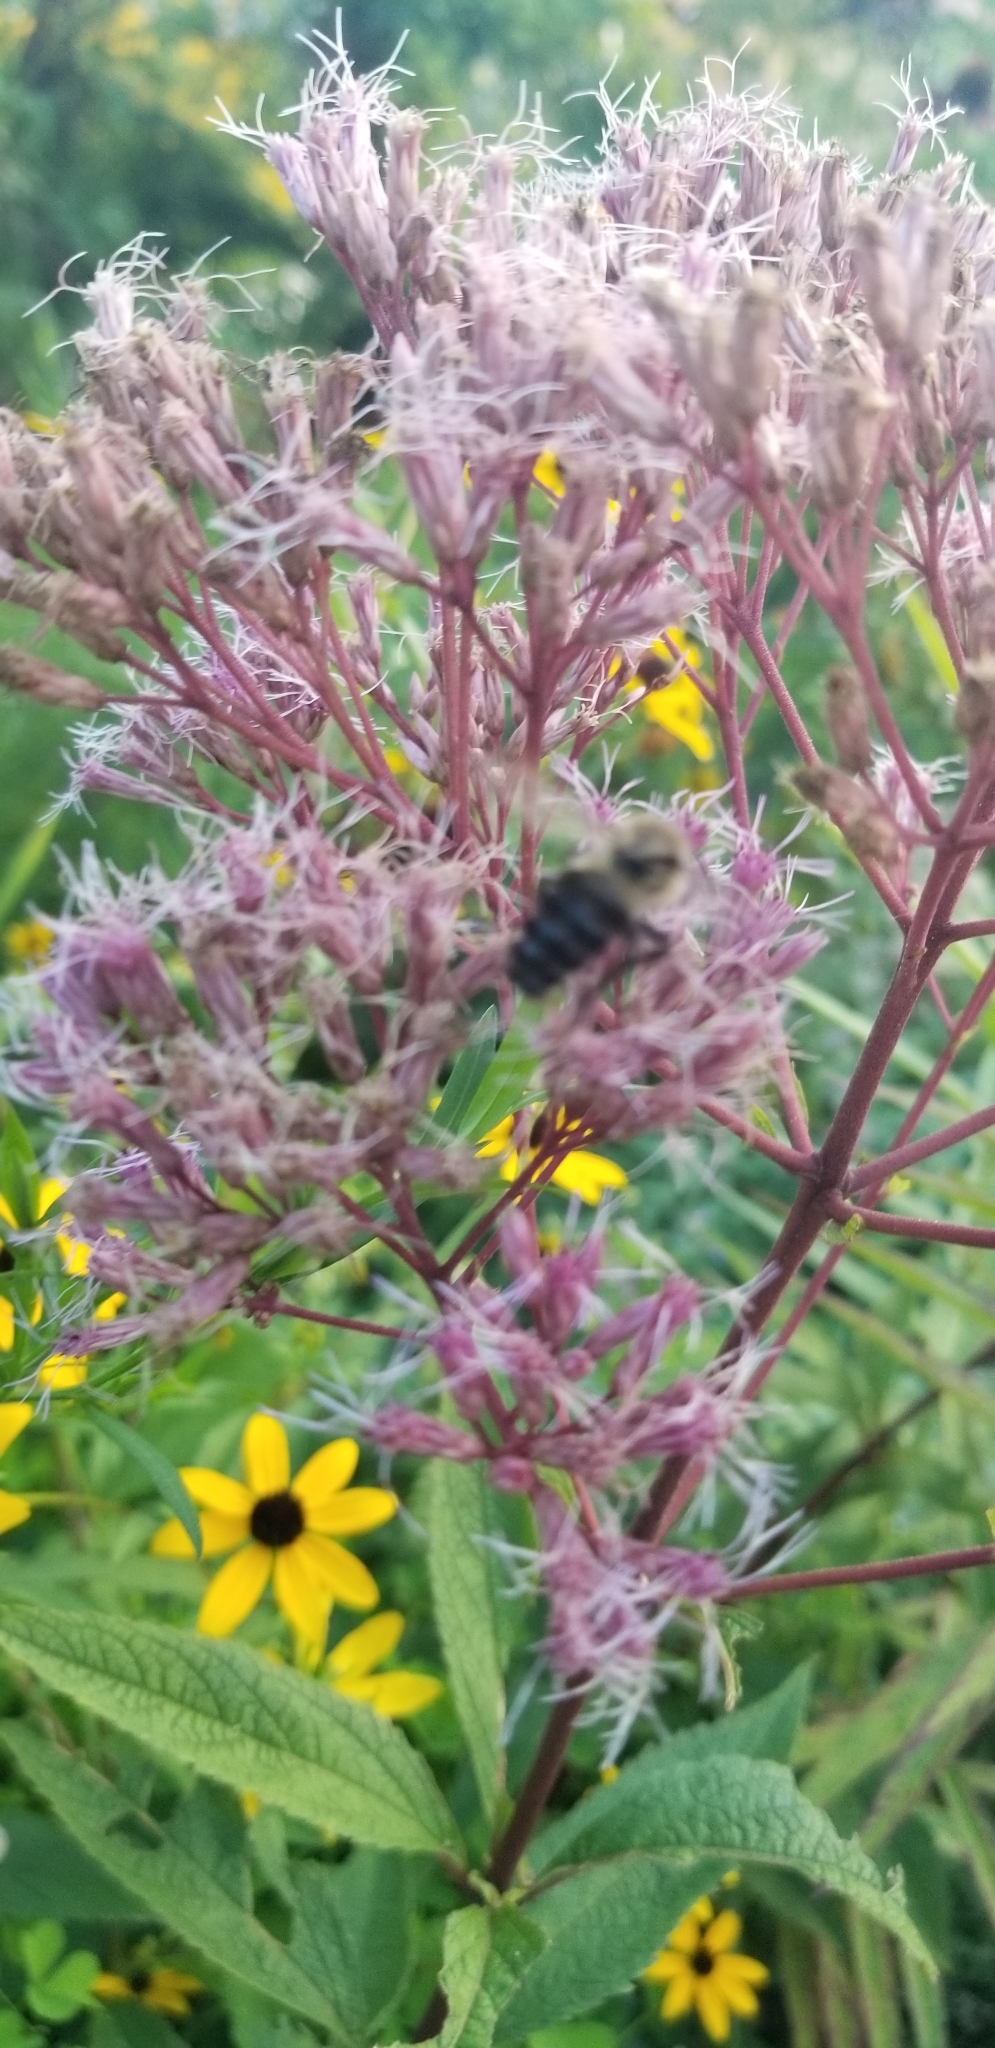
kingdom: Animalia
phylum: Arthropoda
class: Insecta
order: Hymenoptera
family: Apidae
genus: Bombus
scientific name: Bombus impatiens
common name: Common eastern bumble bee
